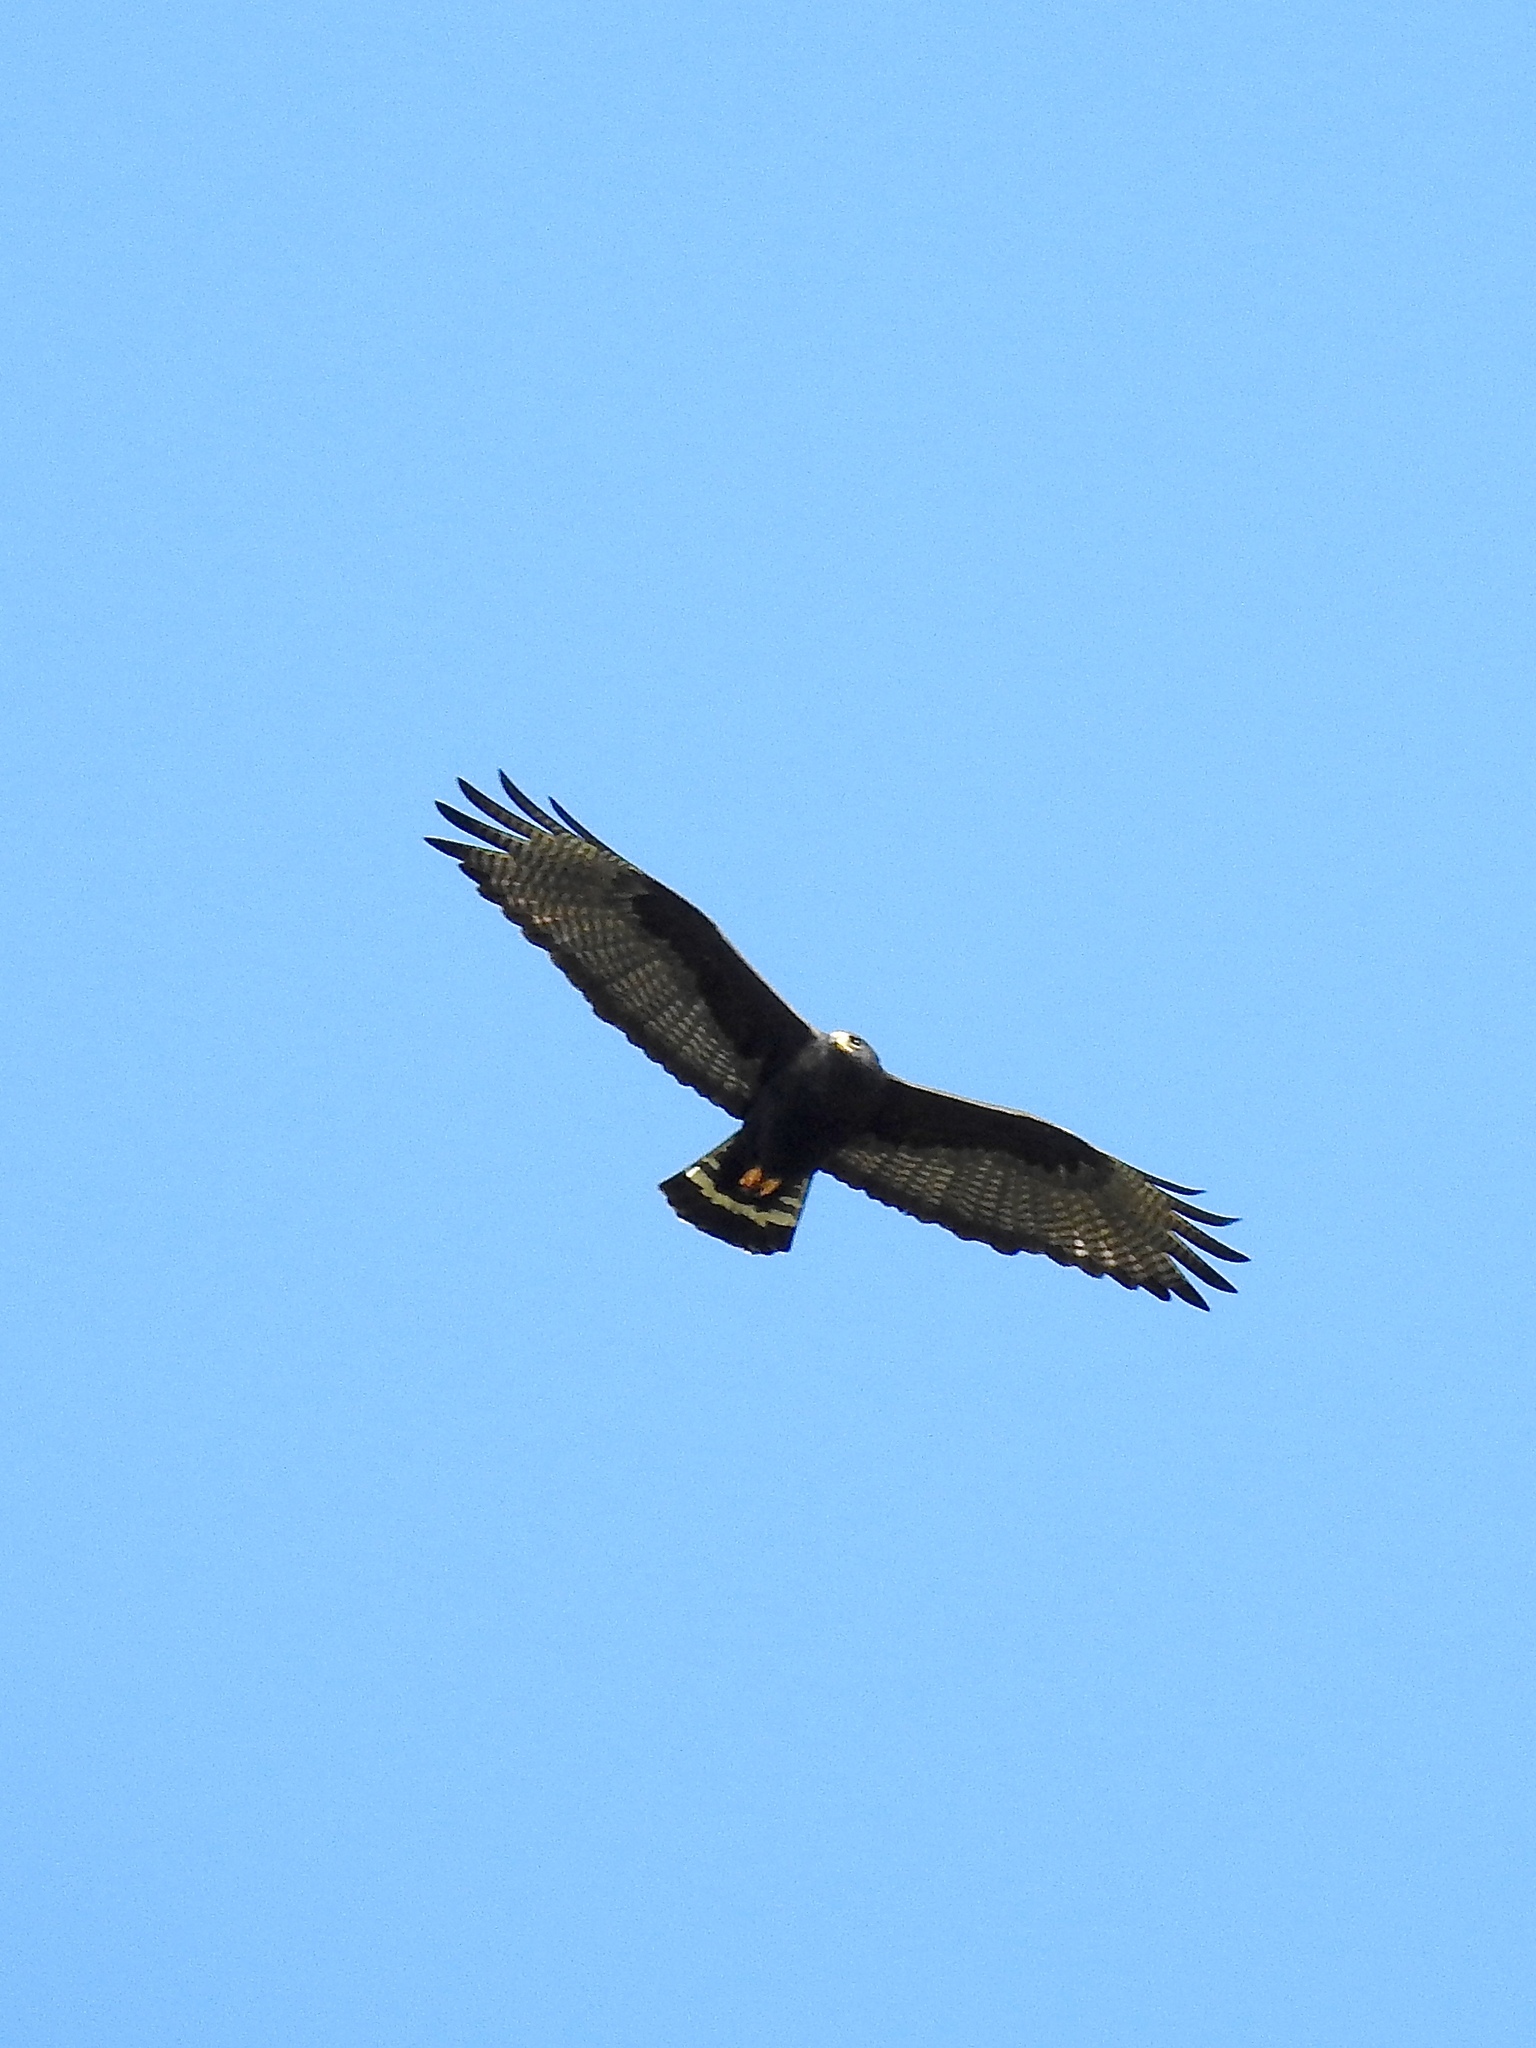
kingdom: Animalia
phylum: Chordata
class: Aves
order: Accipitriformes
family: Accipitridae
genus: Buteo
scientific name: Buteo albonotatus
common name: Zone-tailed hawk
